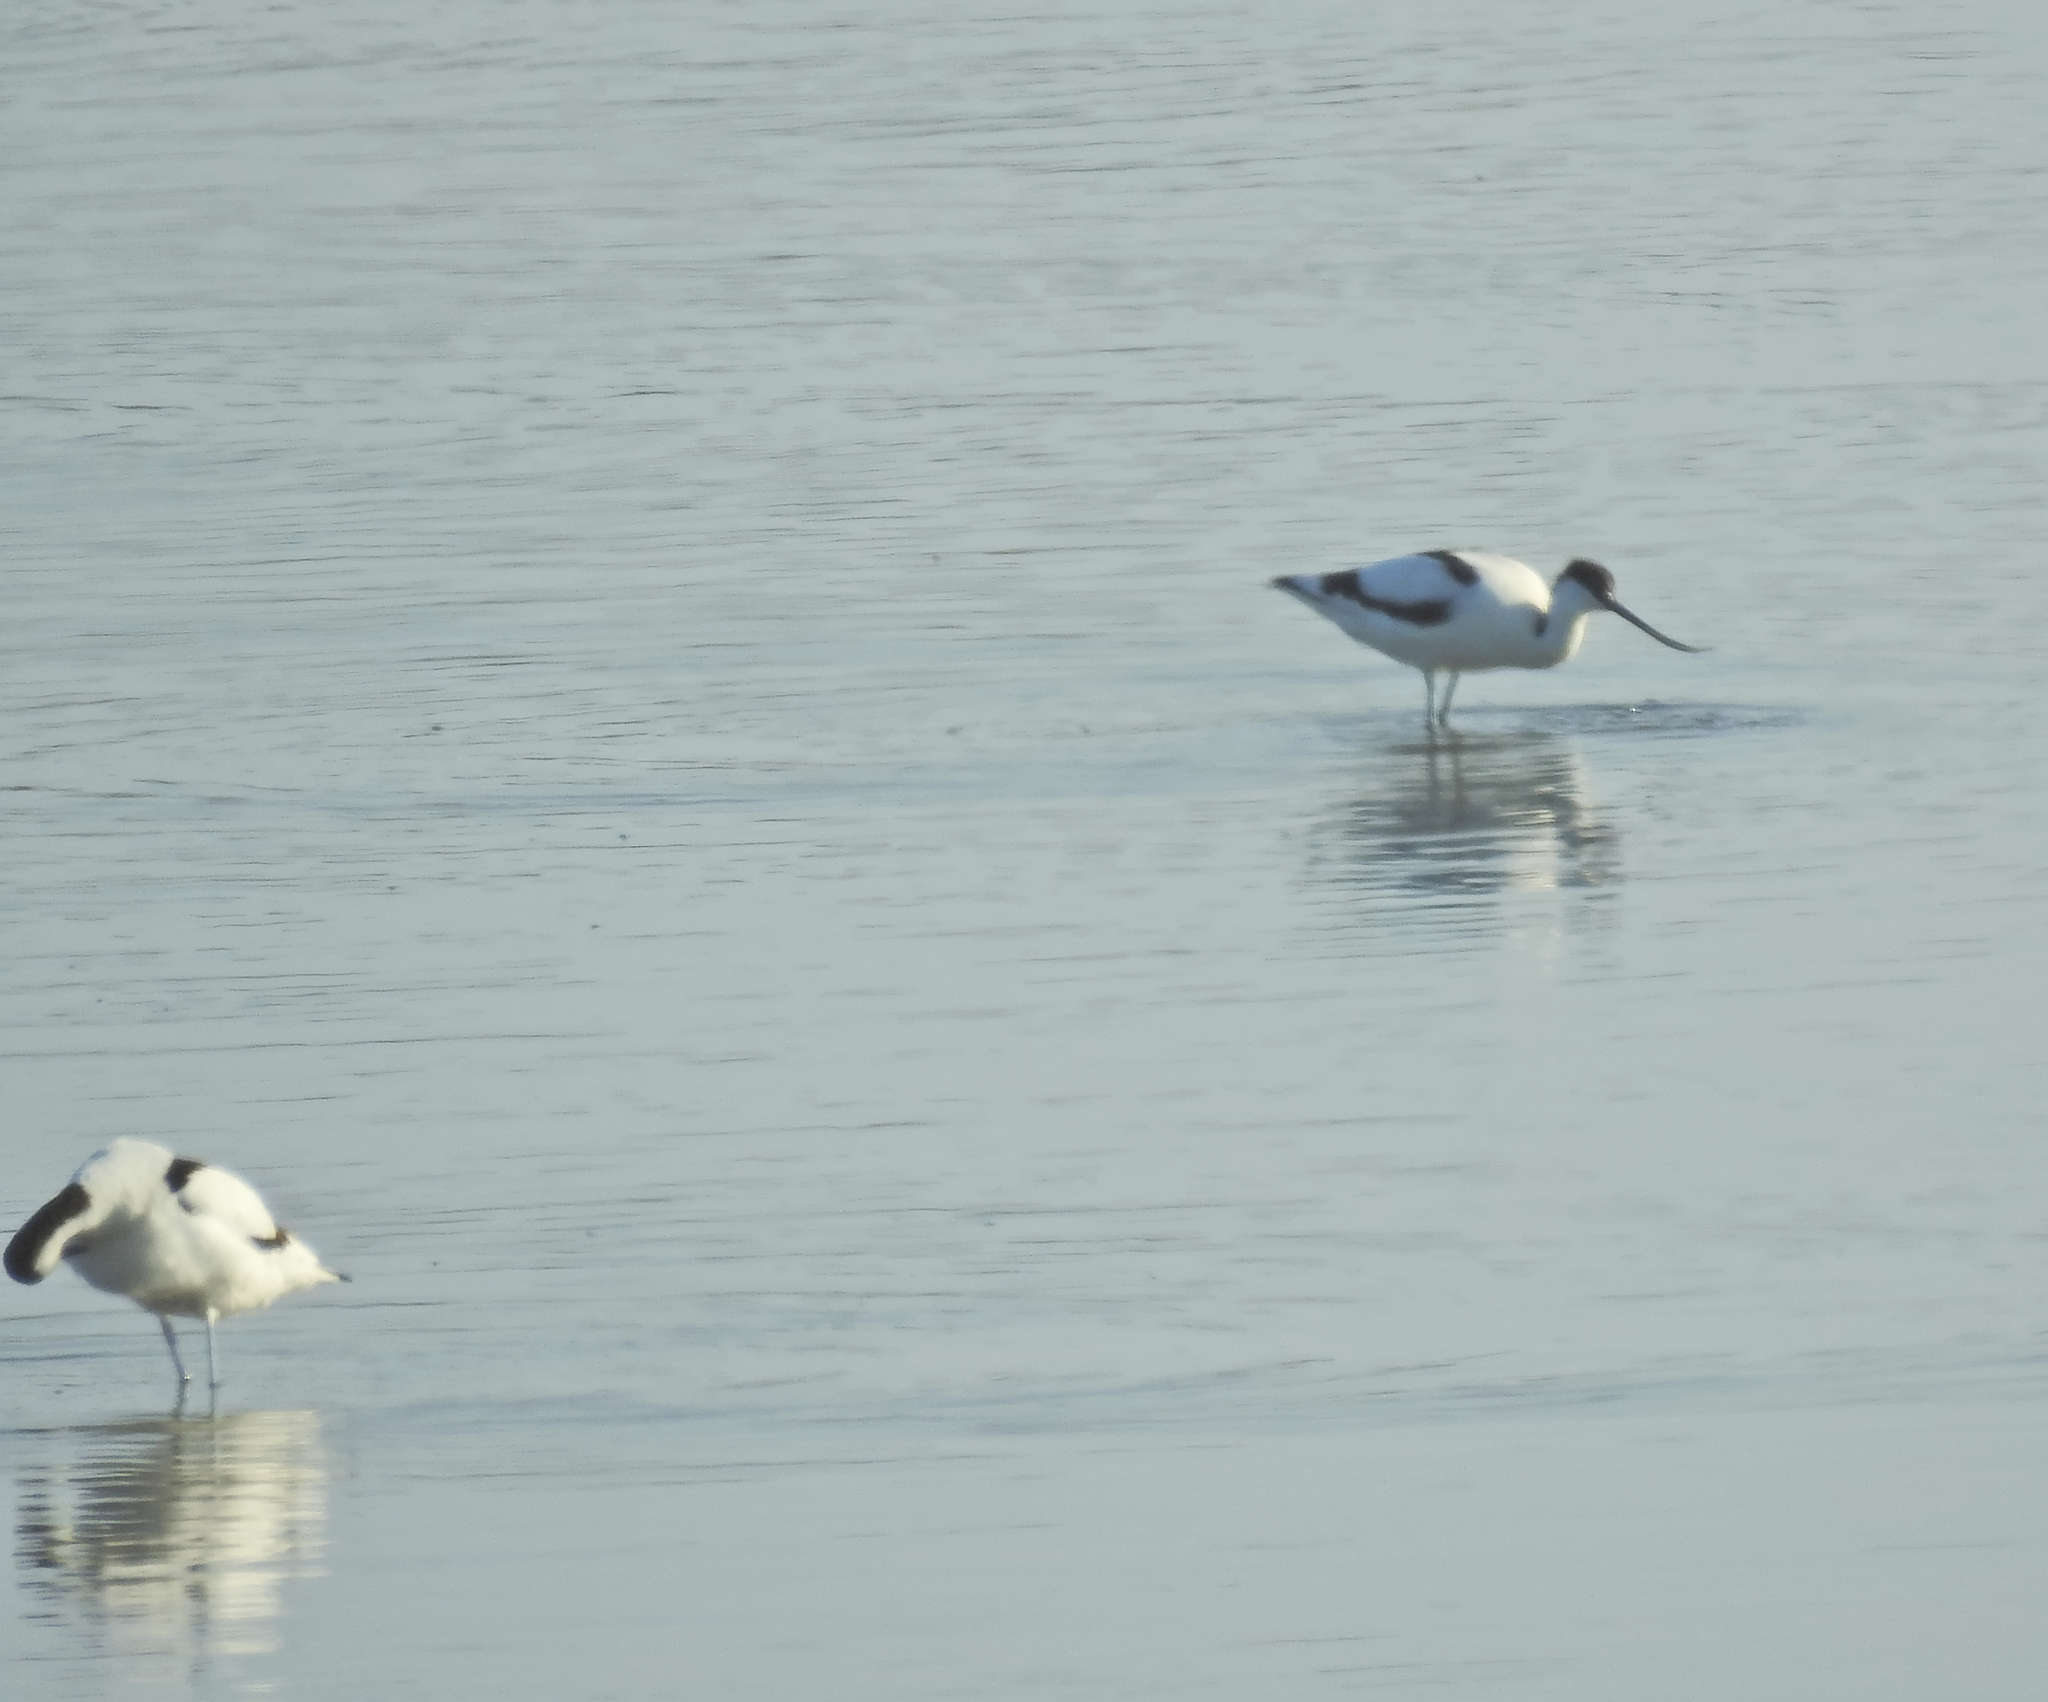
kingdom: Animalia
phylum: Chordata
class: Aves
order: Charadriiformes
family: Recurvirostridae
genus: Recurvirostra
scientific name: Recurvirostra avosetta
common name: Pied avocet
